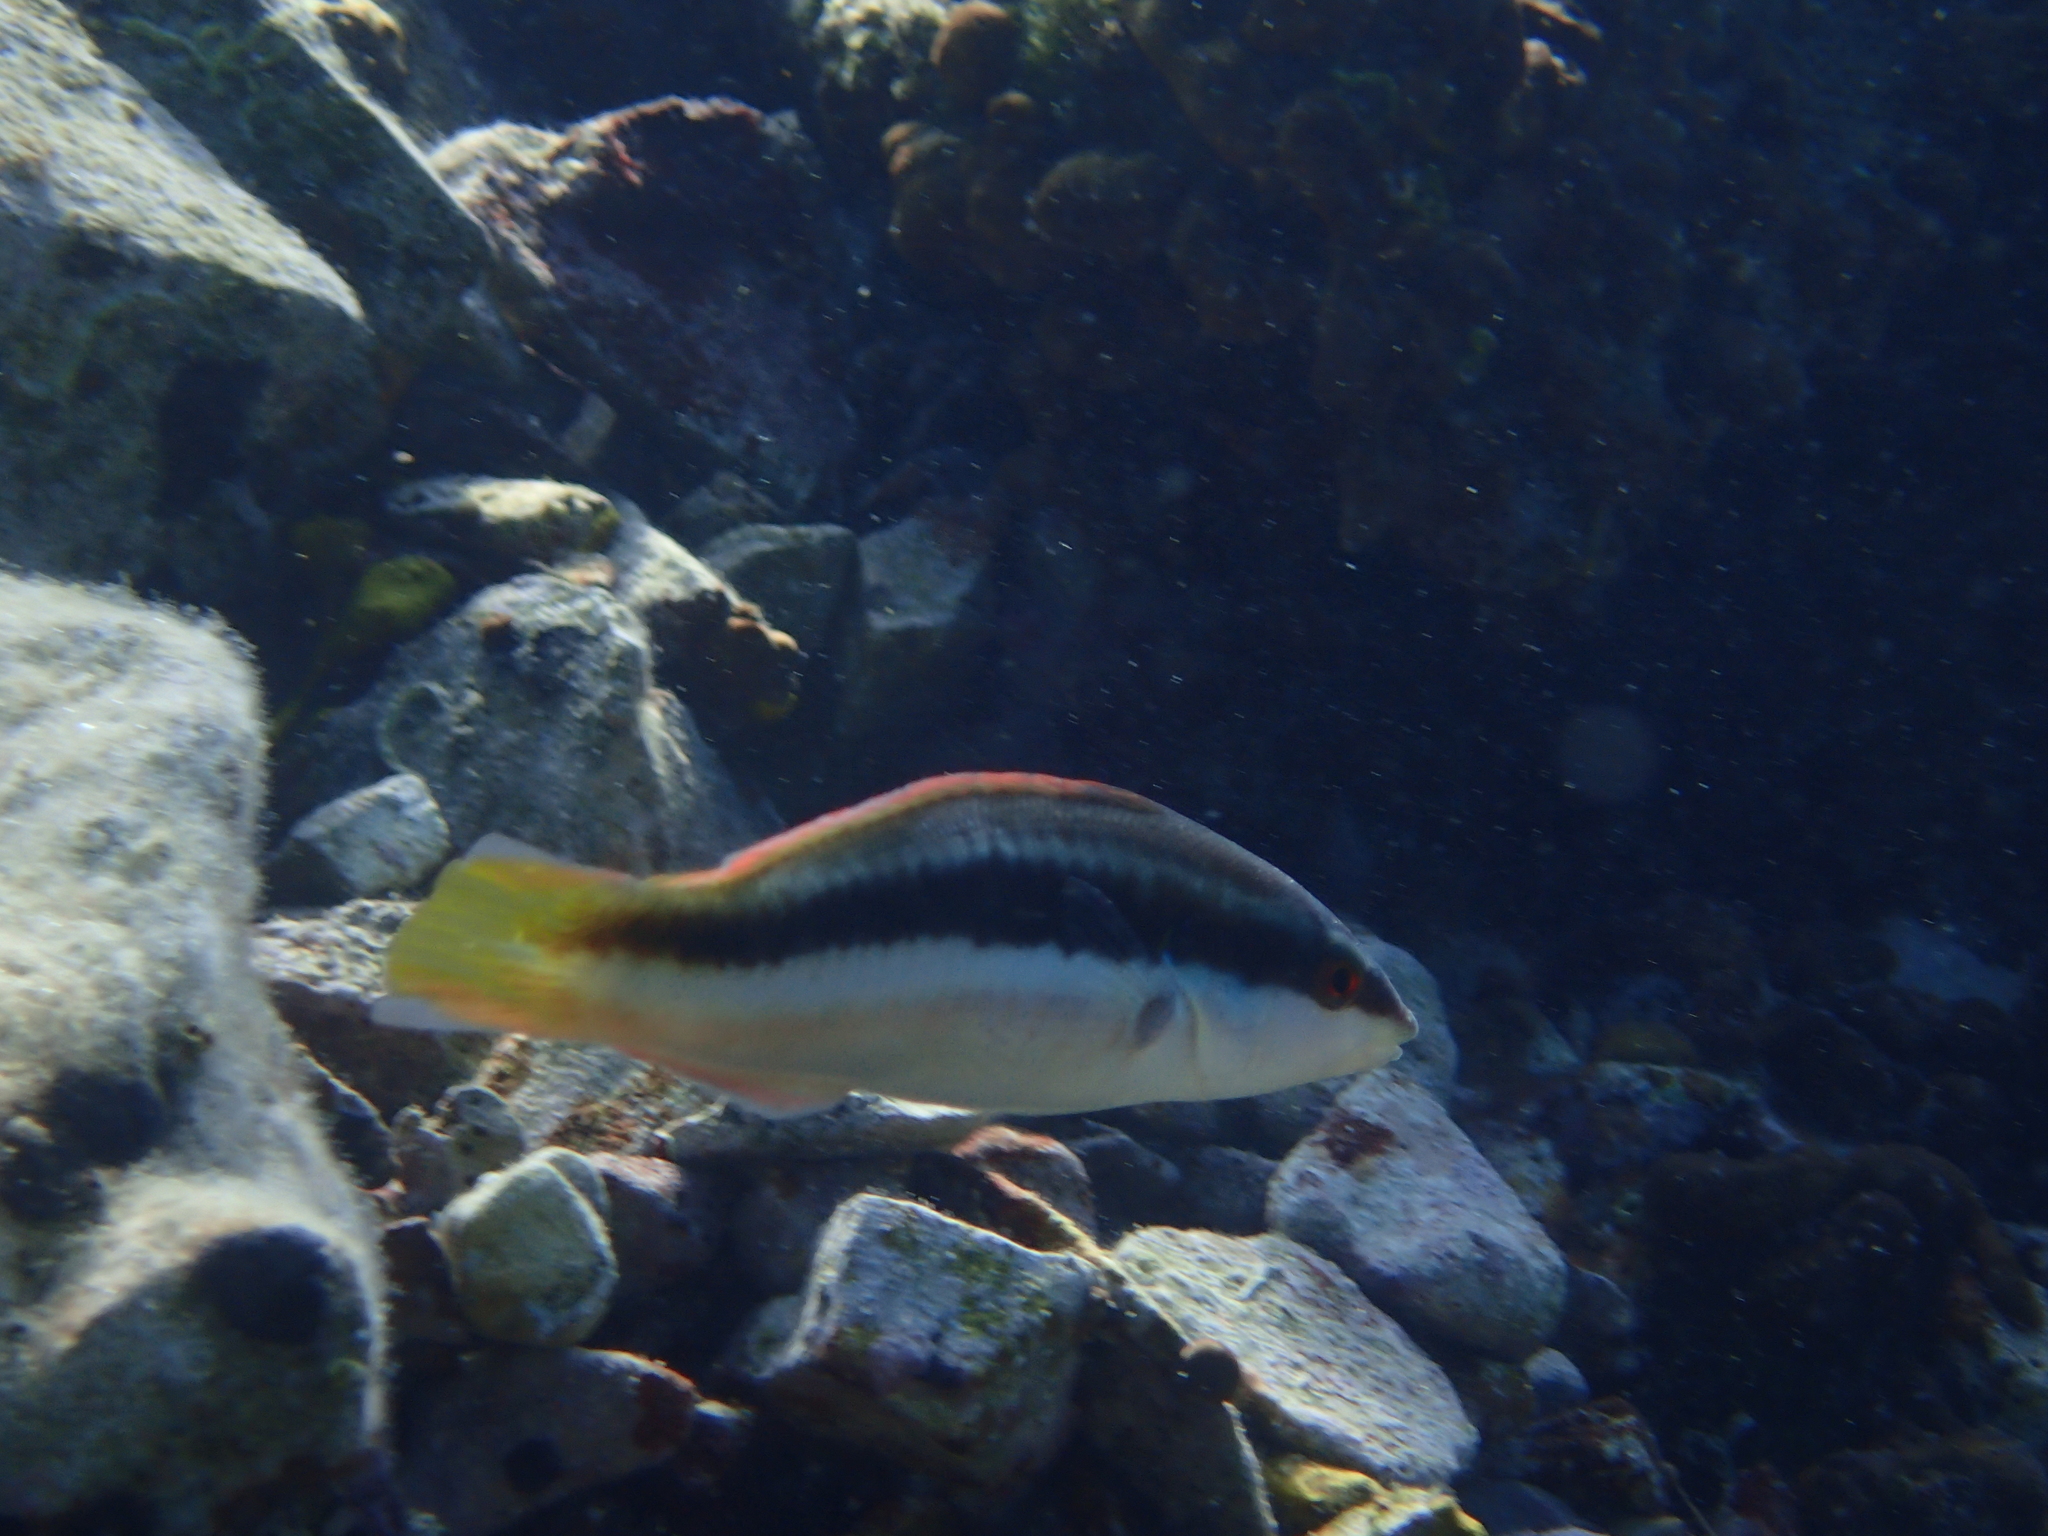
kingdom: Animalia
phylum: Chordata
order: Perciformes
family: Labridae
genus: Coris
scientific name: Coris julis
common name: Rainbow wrasse
